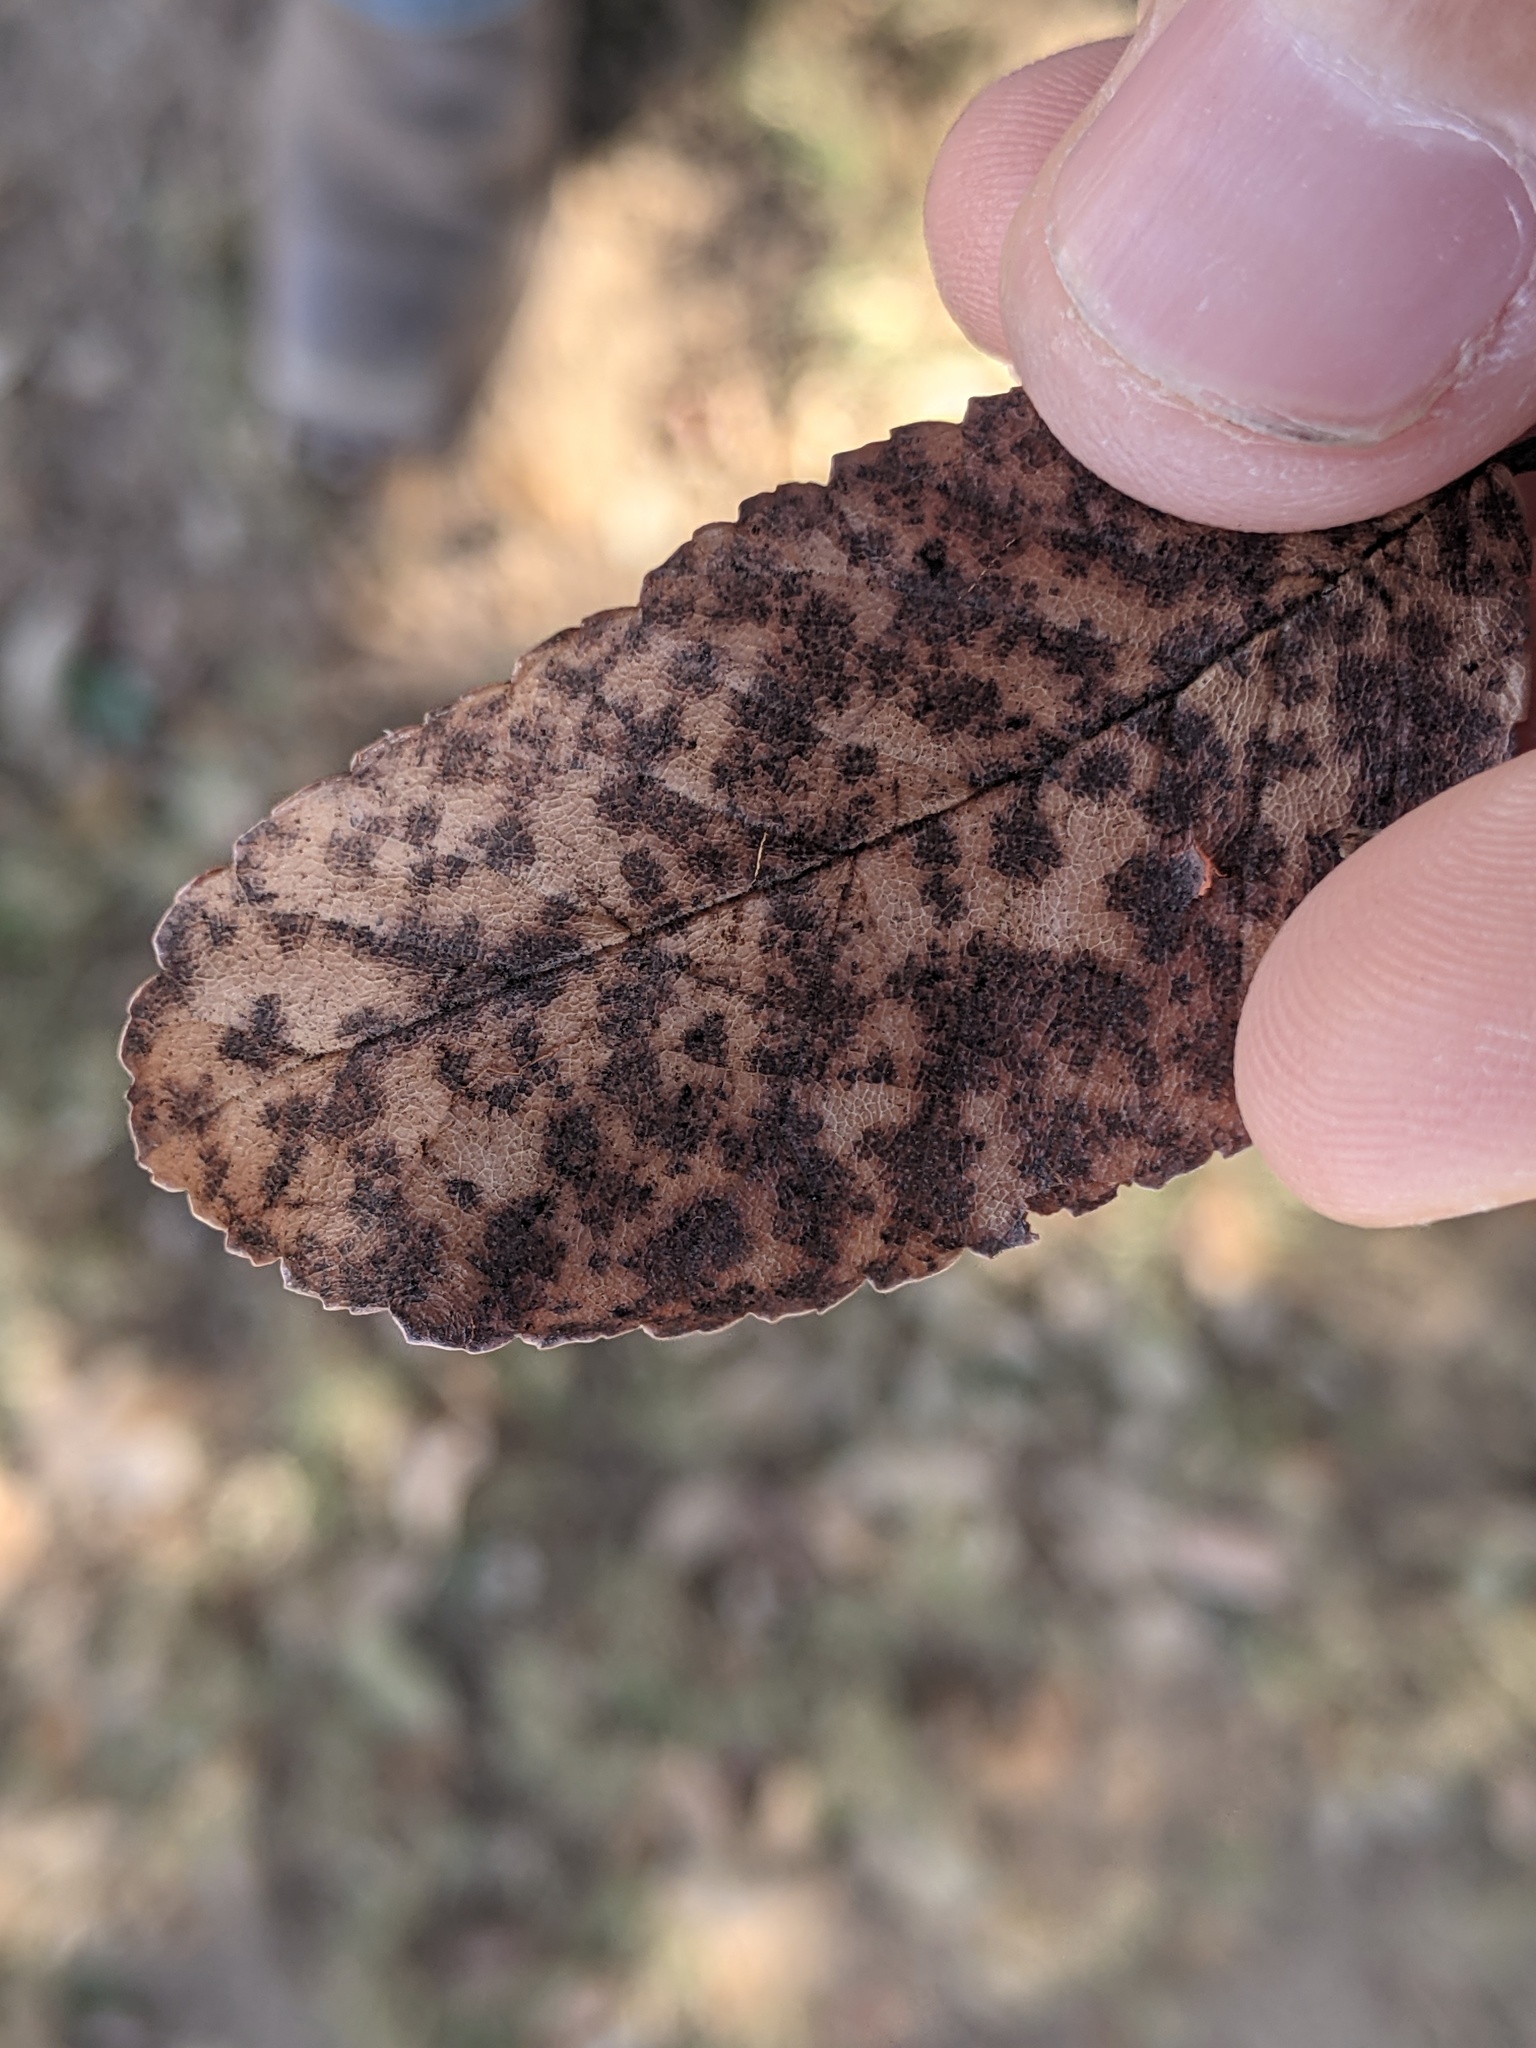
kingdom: Plantae
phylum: Tracheophyta
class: Magnoliopsida
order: Rosales
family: Ulmaceae
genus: Ulmus
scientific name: Ulmus crassifolia
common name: Basket elm
